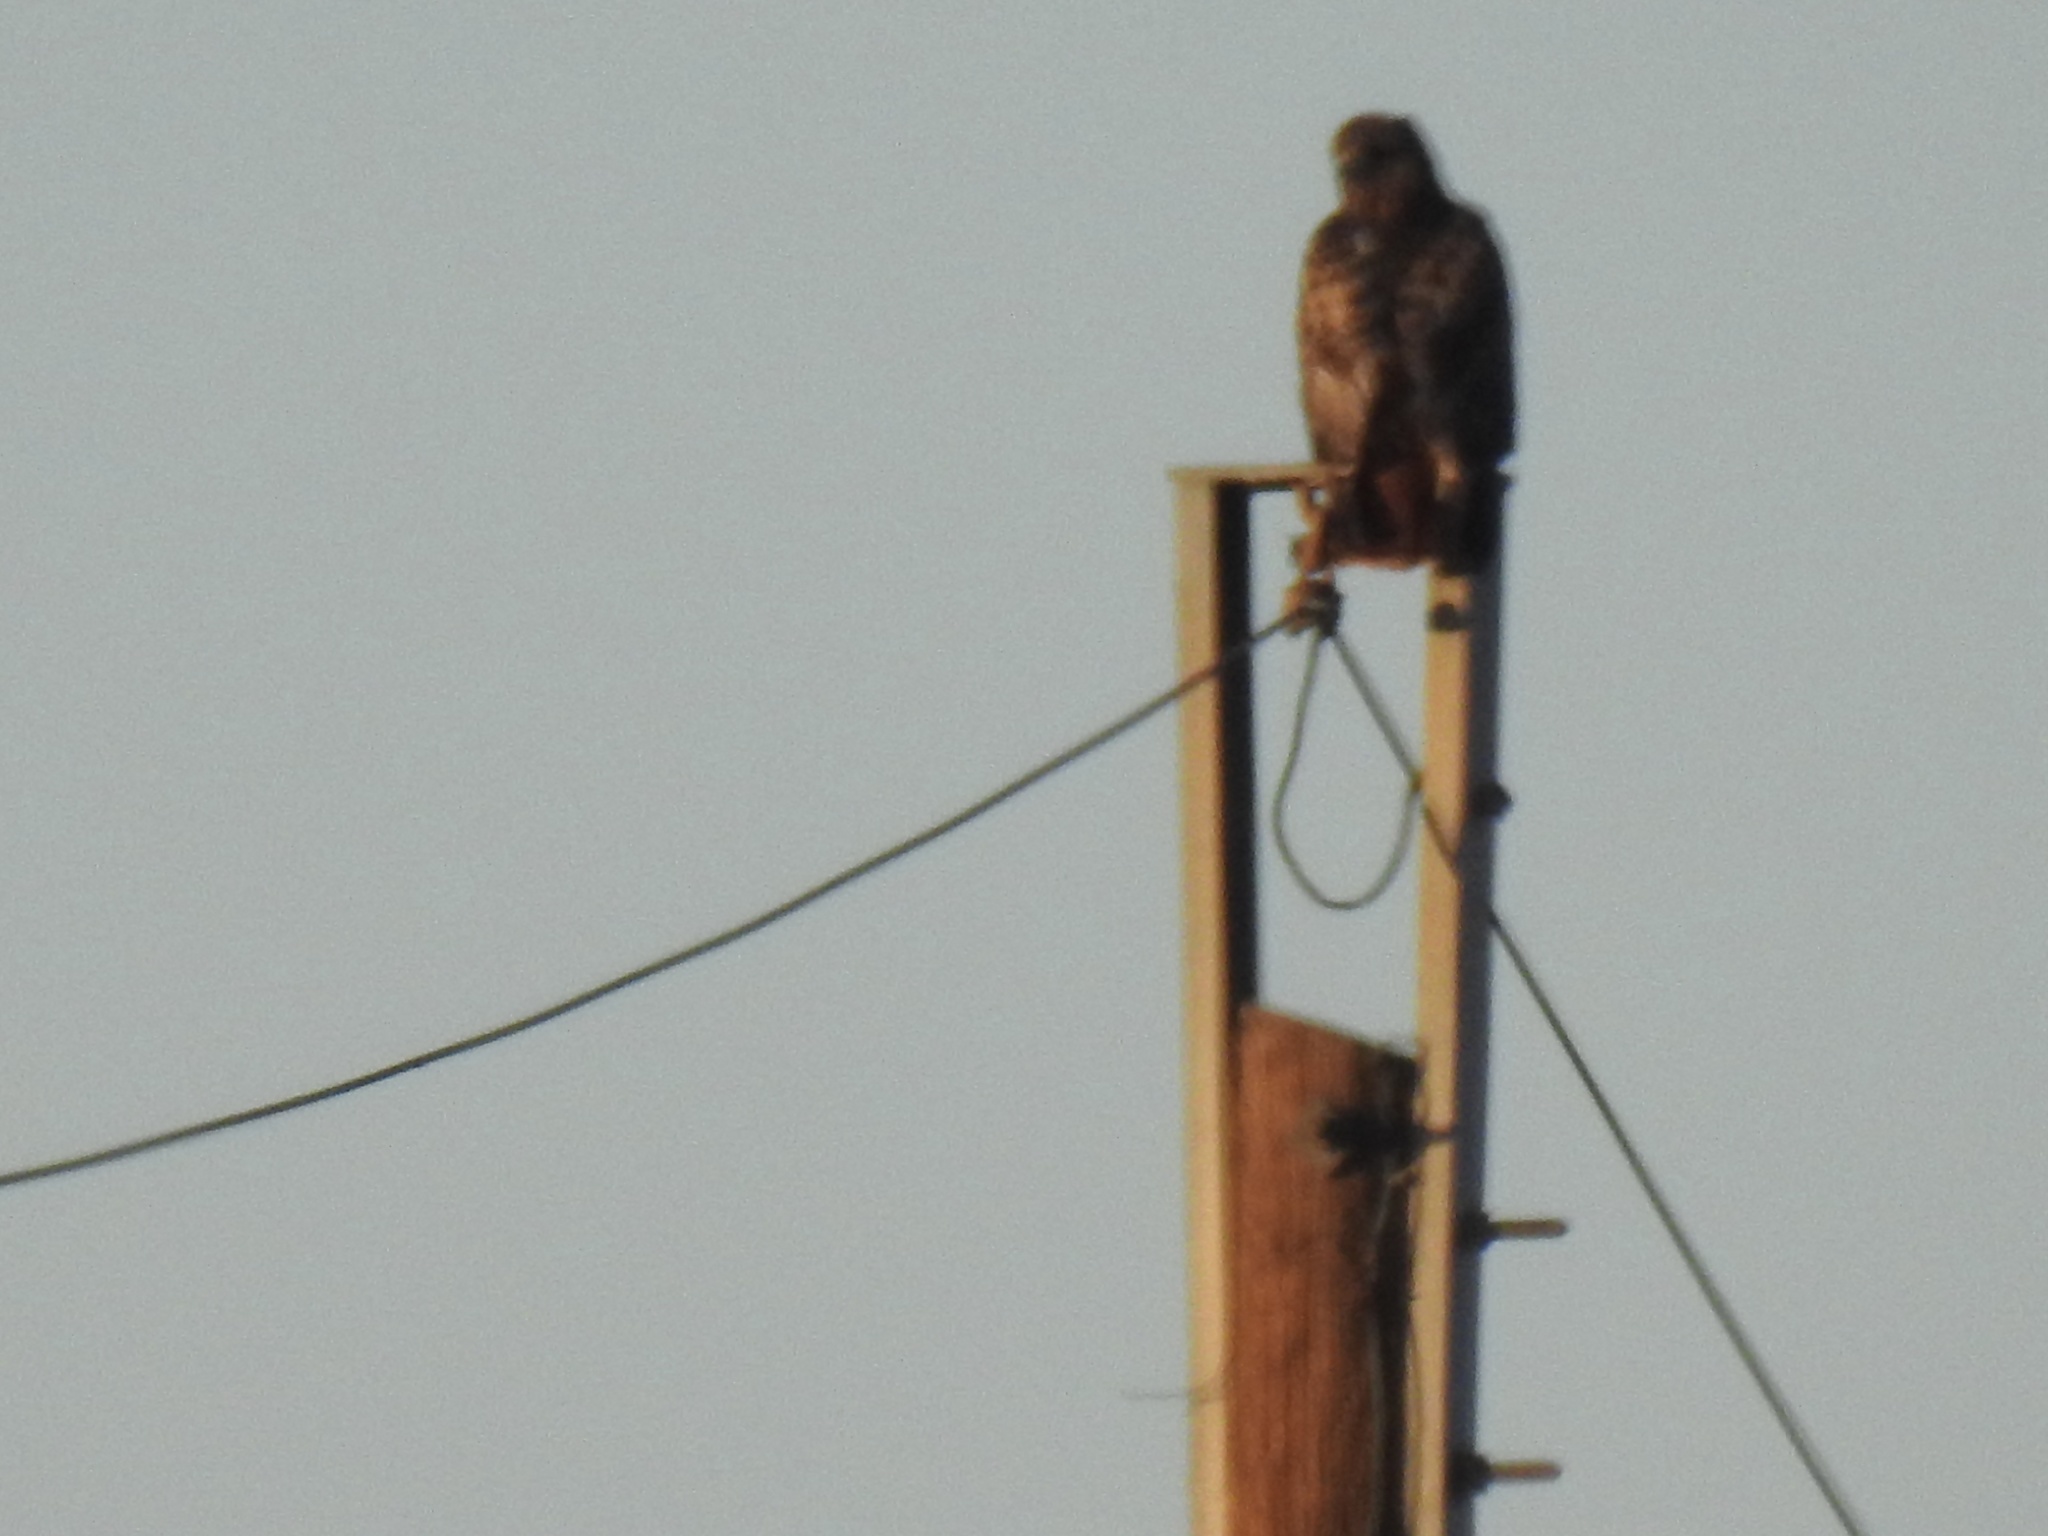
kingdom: Animalia
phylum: Chordata
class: Aves
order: Accipitriformes
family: Accipitridae
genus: Buteo
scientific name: Buteo jamaicensis
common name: Red-tailed hawk
